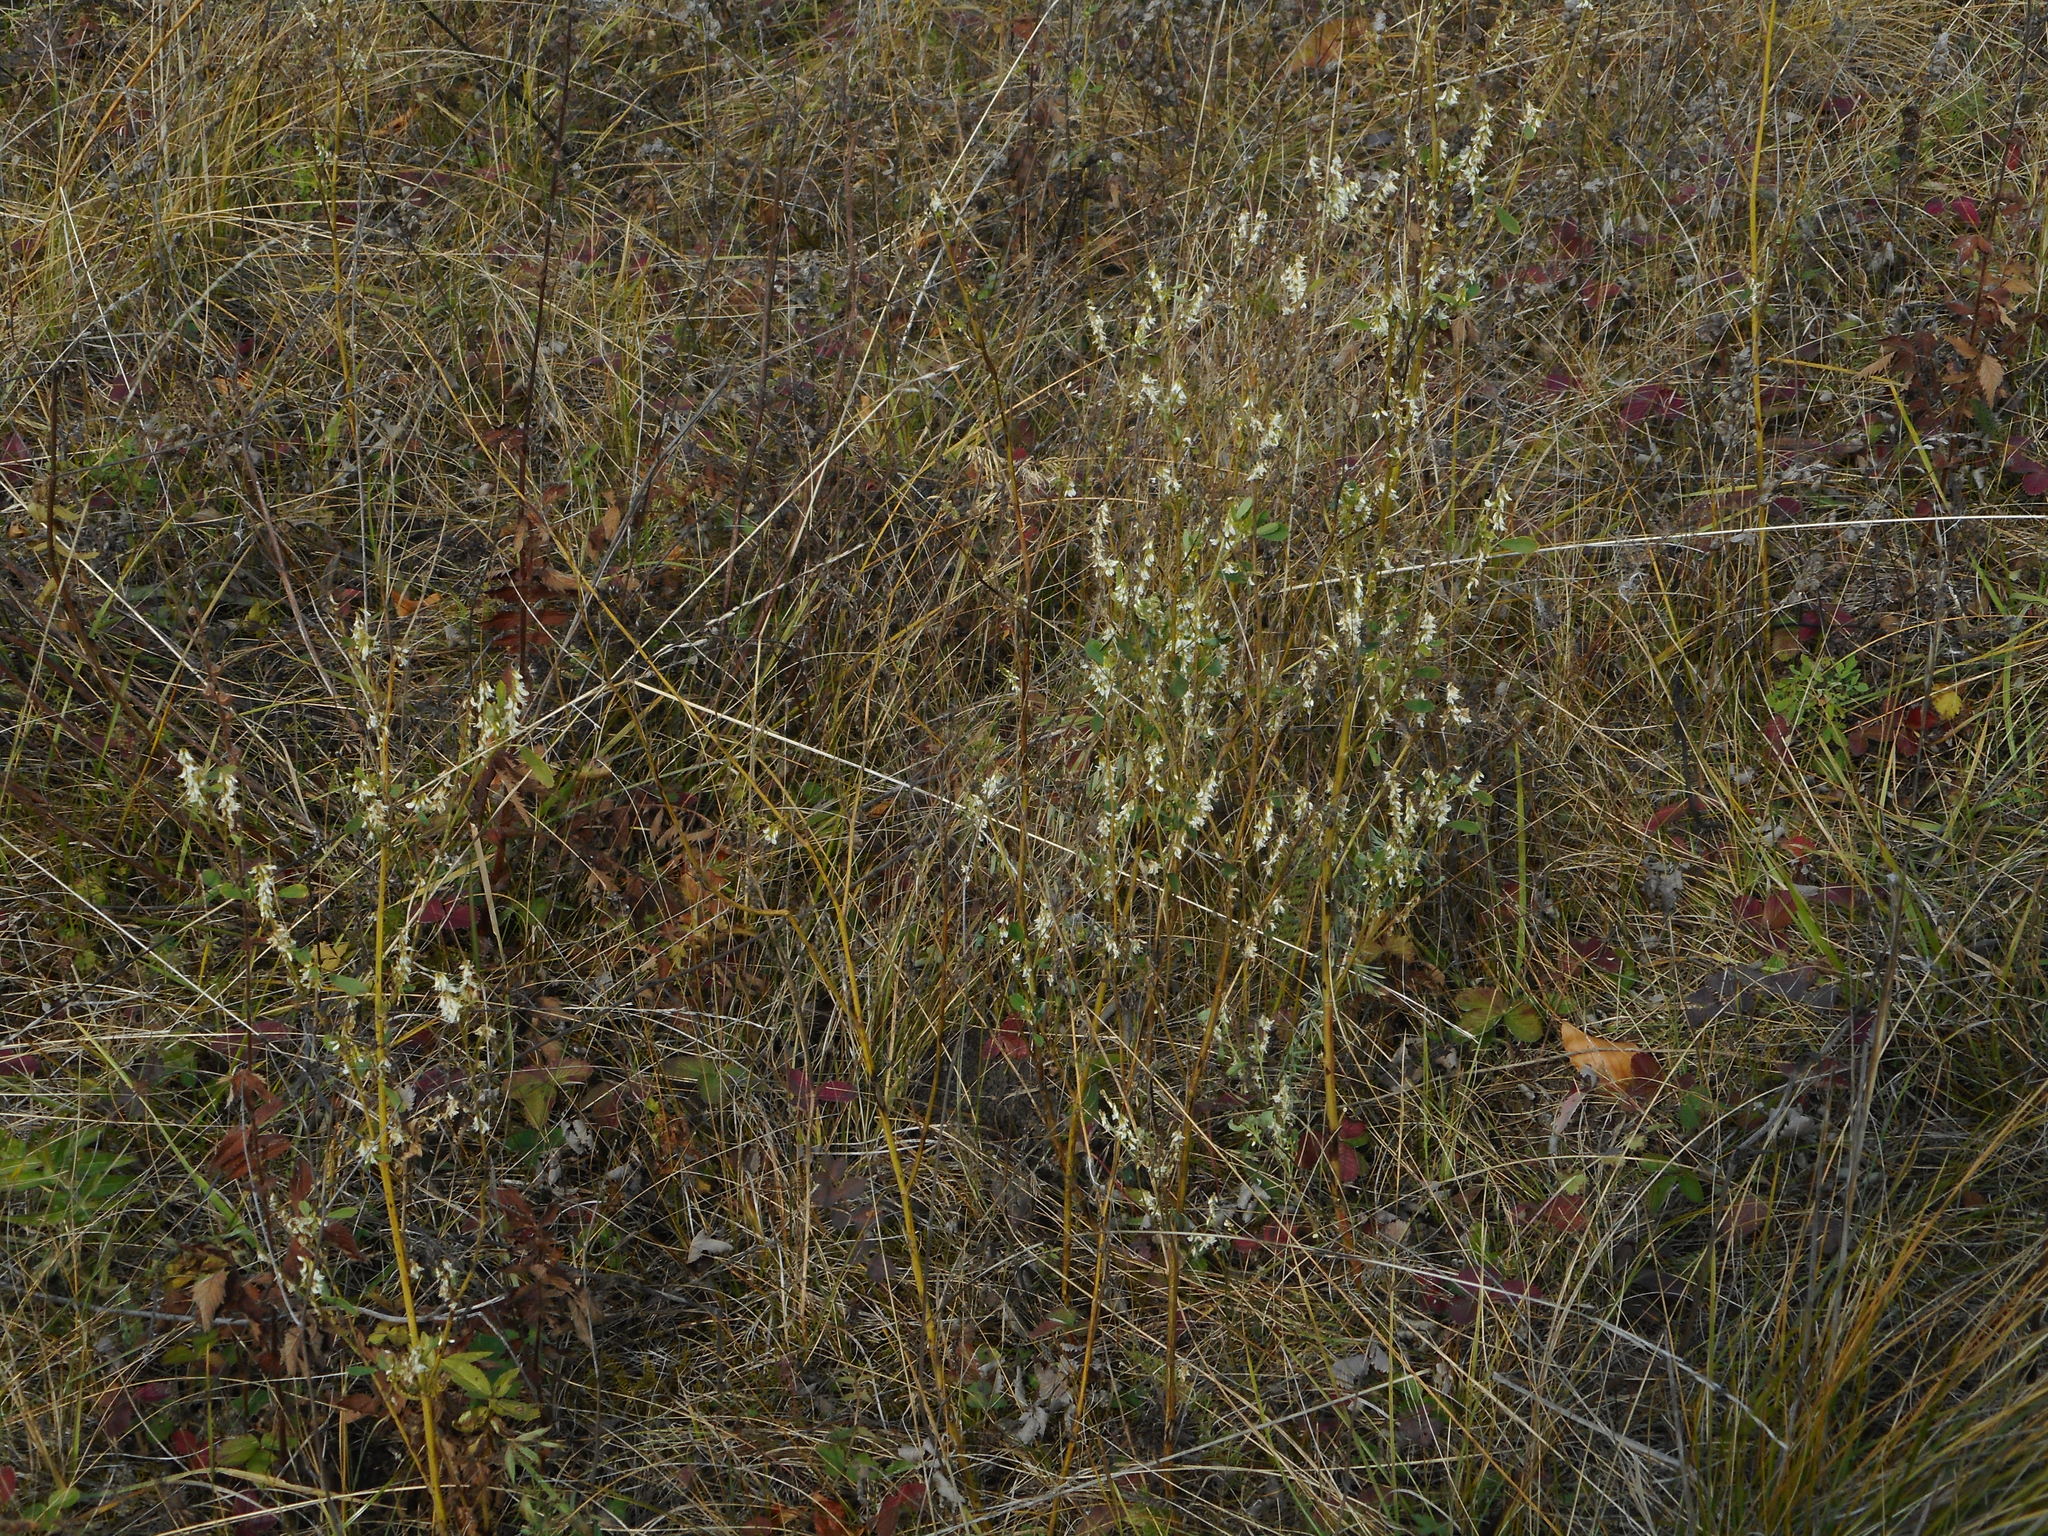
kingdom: Plantae
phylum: Tracheophyta
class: Magnoliopsida
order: Fabales
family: Fabaceae
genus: Melilotus
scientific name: Melilotus albus
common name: White melilot
